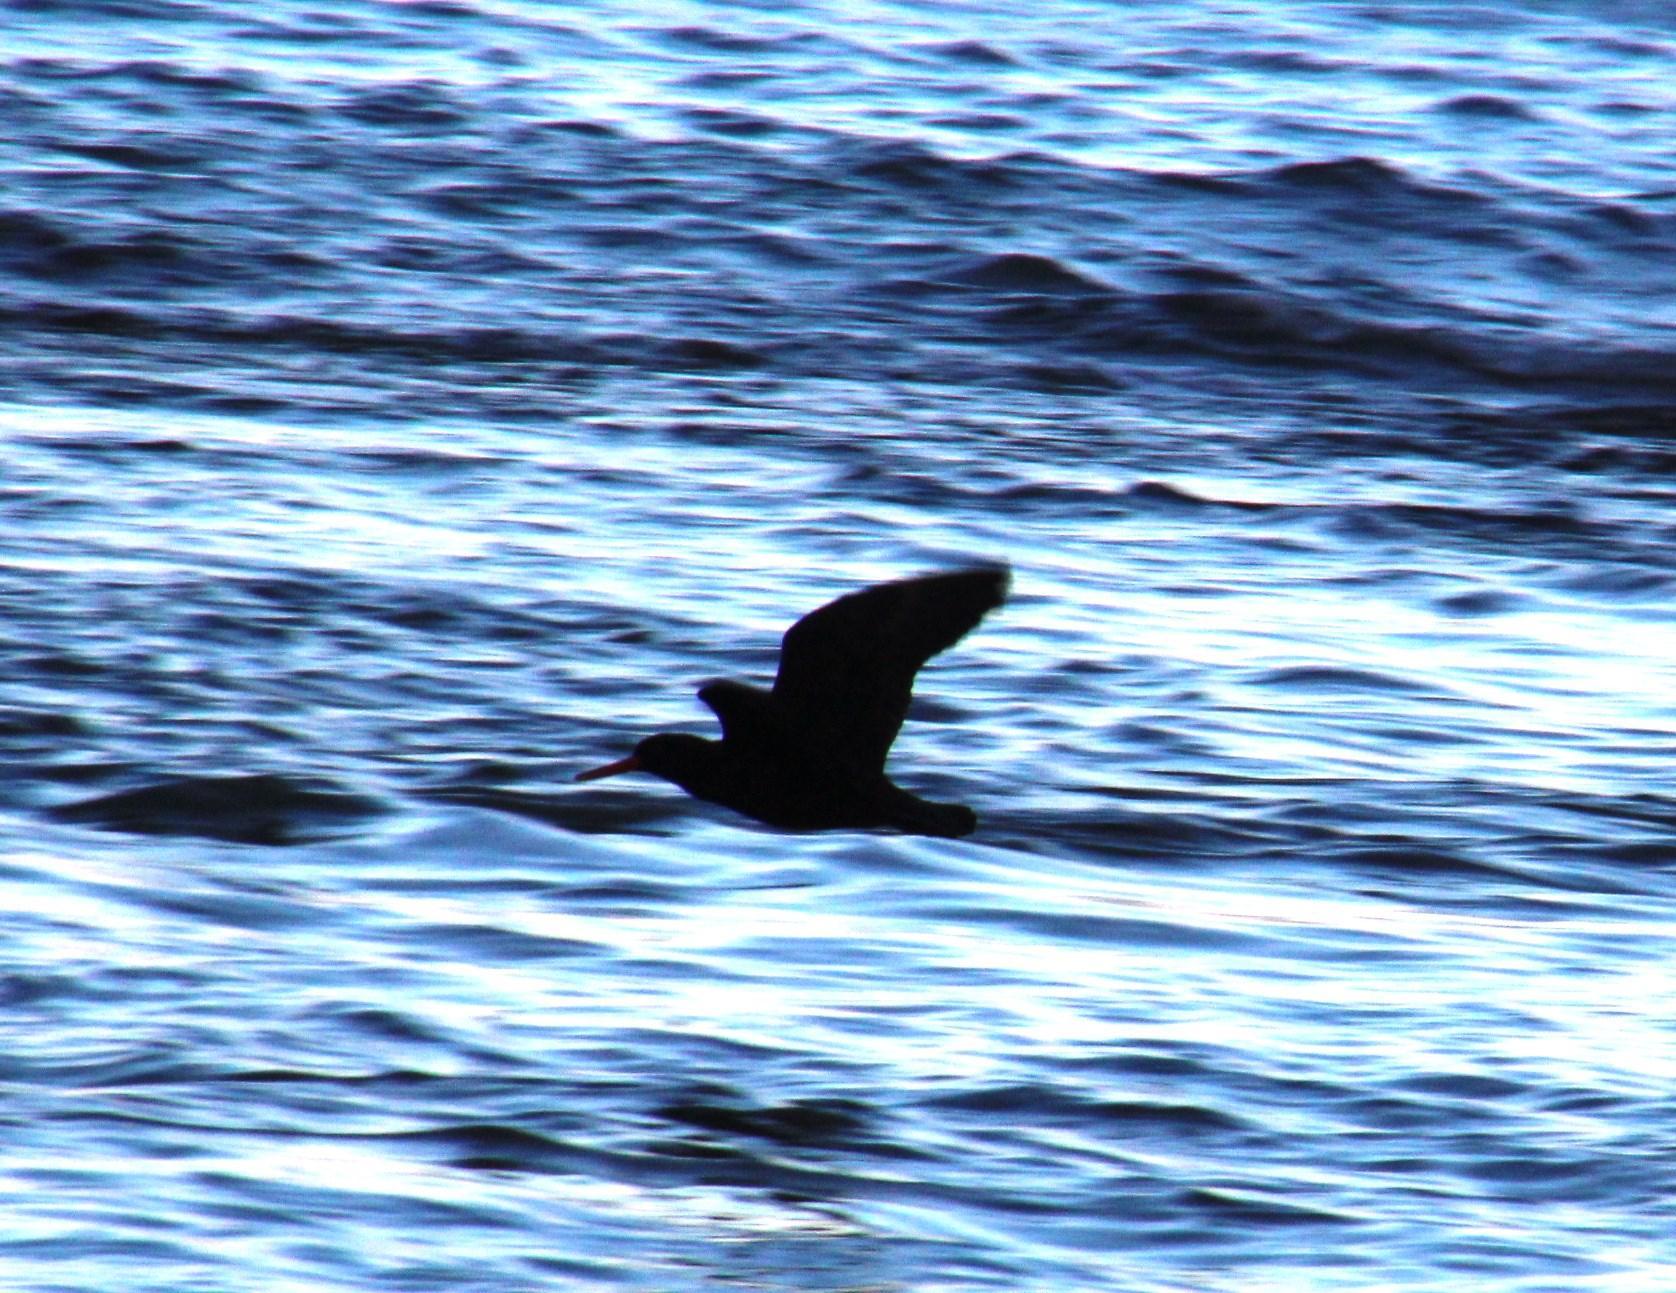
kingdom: Animalia
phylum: Chordata
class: Aves
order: Charadriiformes
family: Haematopodidae
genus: Haematopus
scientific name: Haematopus moquini
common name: African oystercatcher
